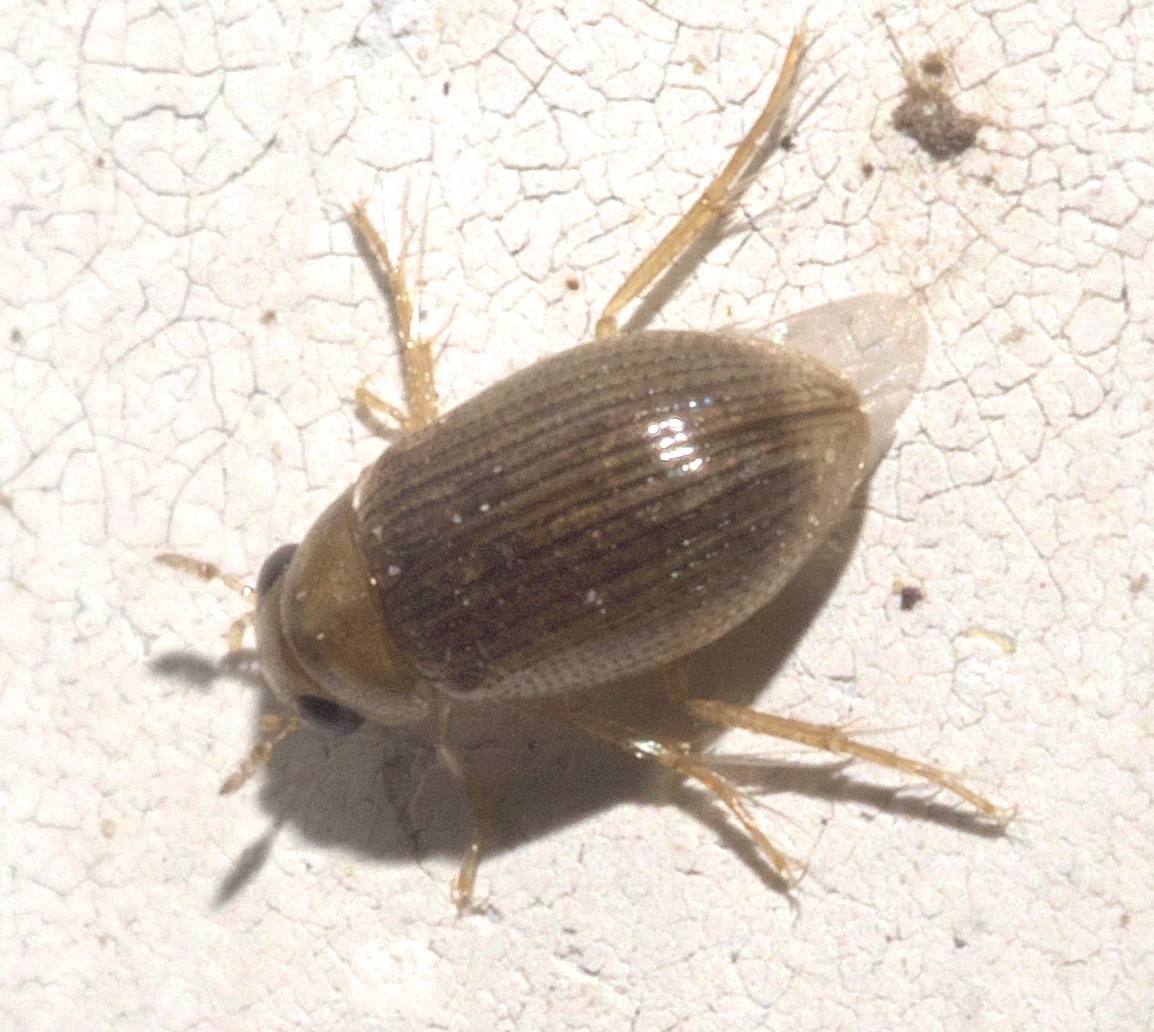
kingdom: Animalia
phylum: Arthropoda
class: Insecta
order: Coleoptera
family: Hydrophilidae
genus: Berosus
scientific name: Berosus exiguus
